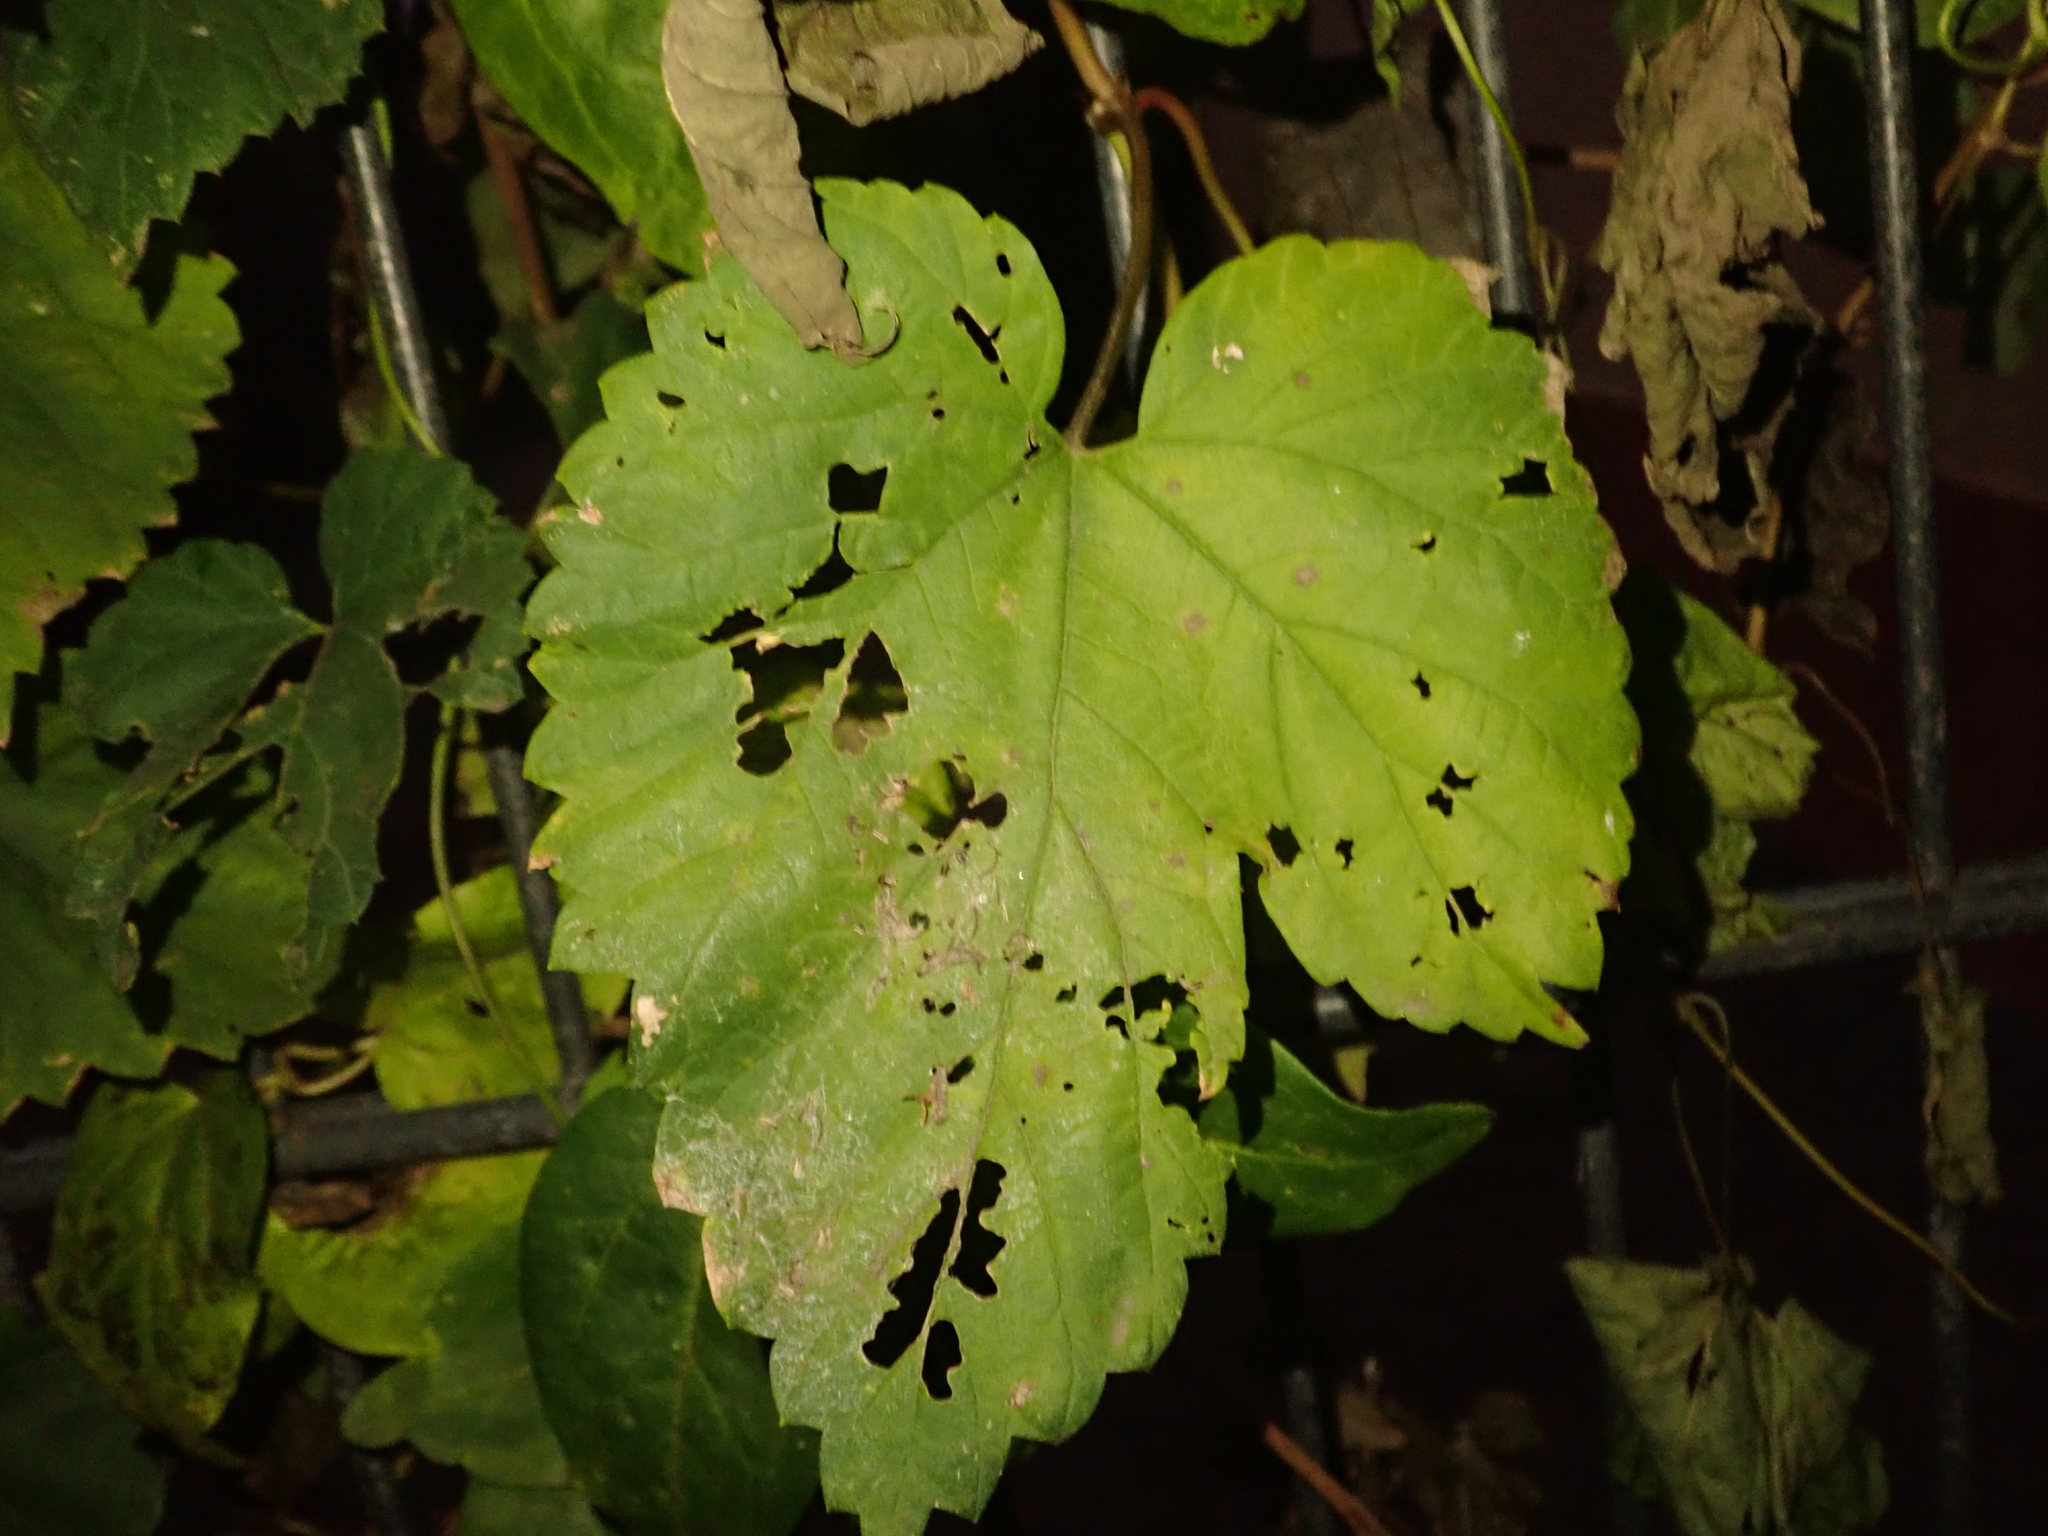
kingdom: Plantae
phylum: Tracheophyta
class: Magnoliopsida
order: Rosales
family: Cannabaceae
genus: Humulus
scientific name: Humulus lupulus
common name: Hop
